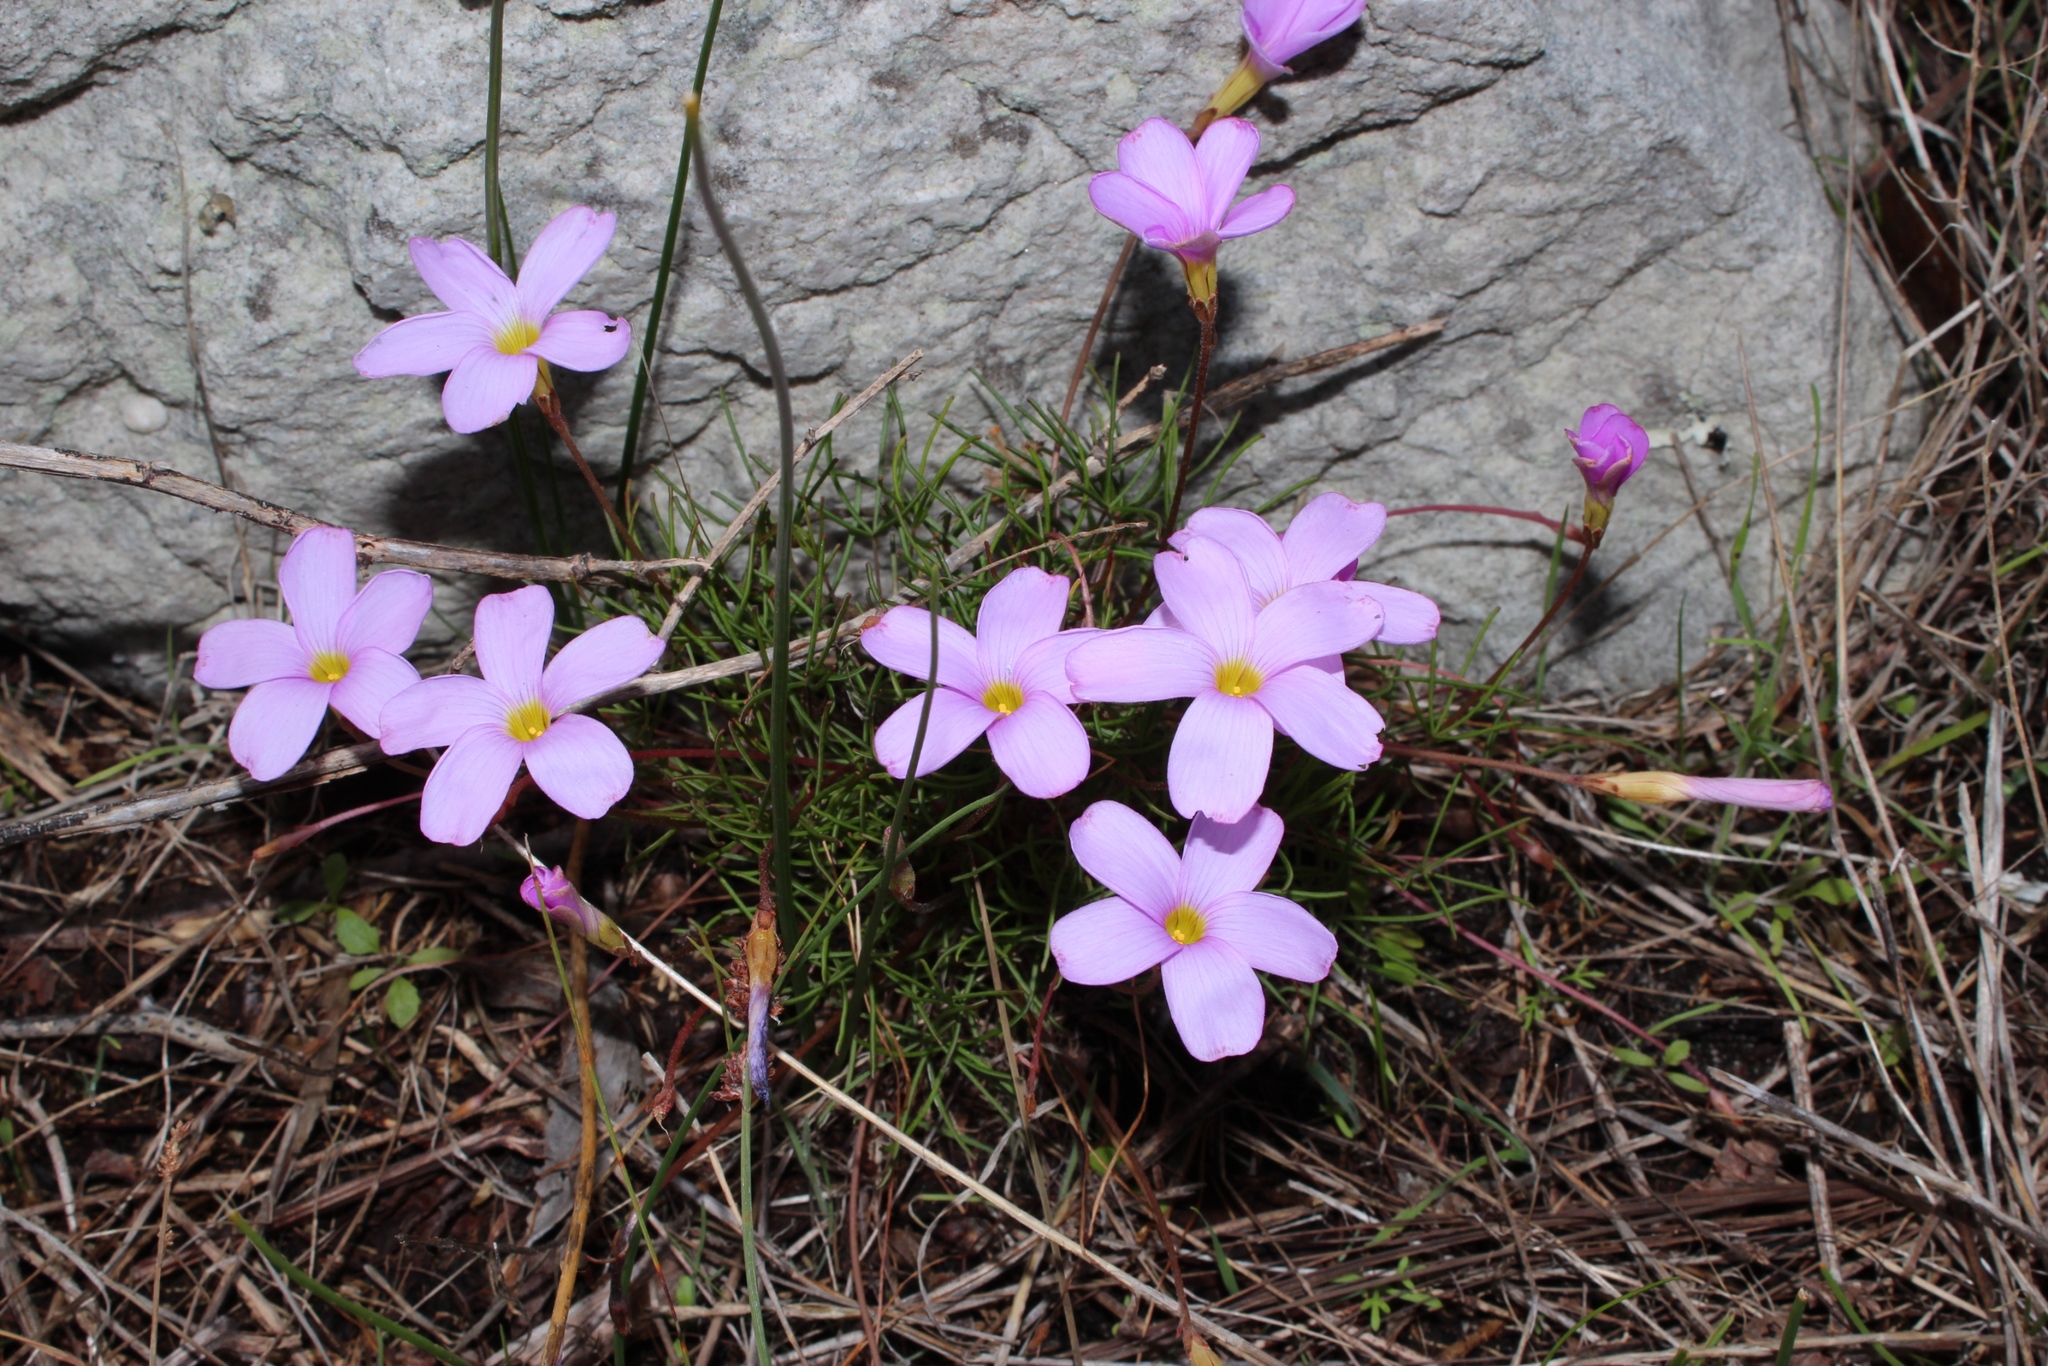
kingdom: Plantae
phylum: Tracheophyta
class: Magnoliopsida
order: Oxalidales
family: Oxalidaceae
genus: Oxalis
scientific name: Oxalis polyphylla
